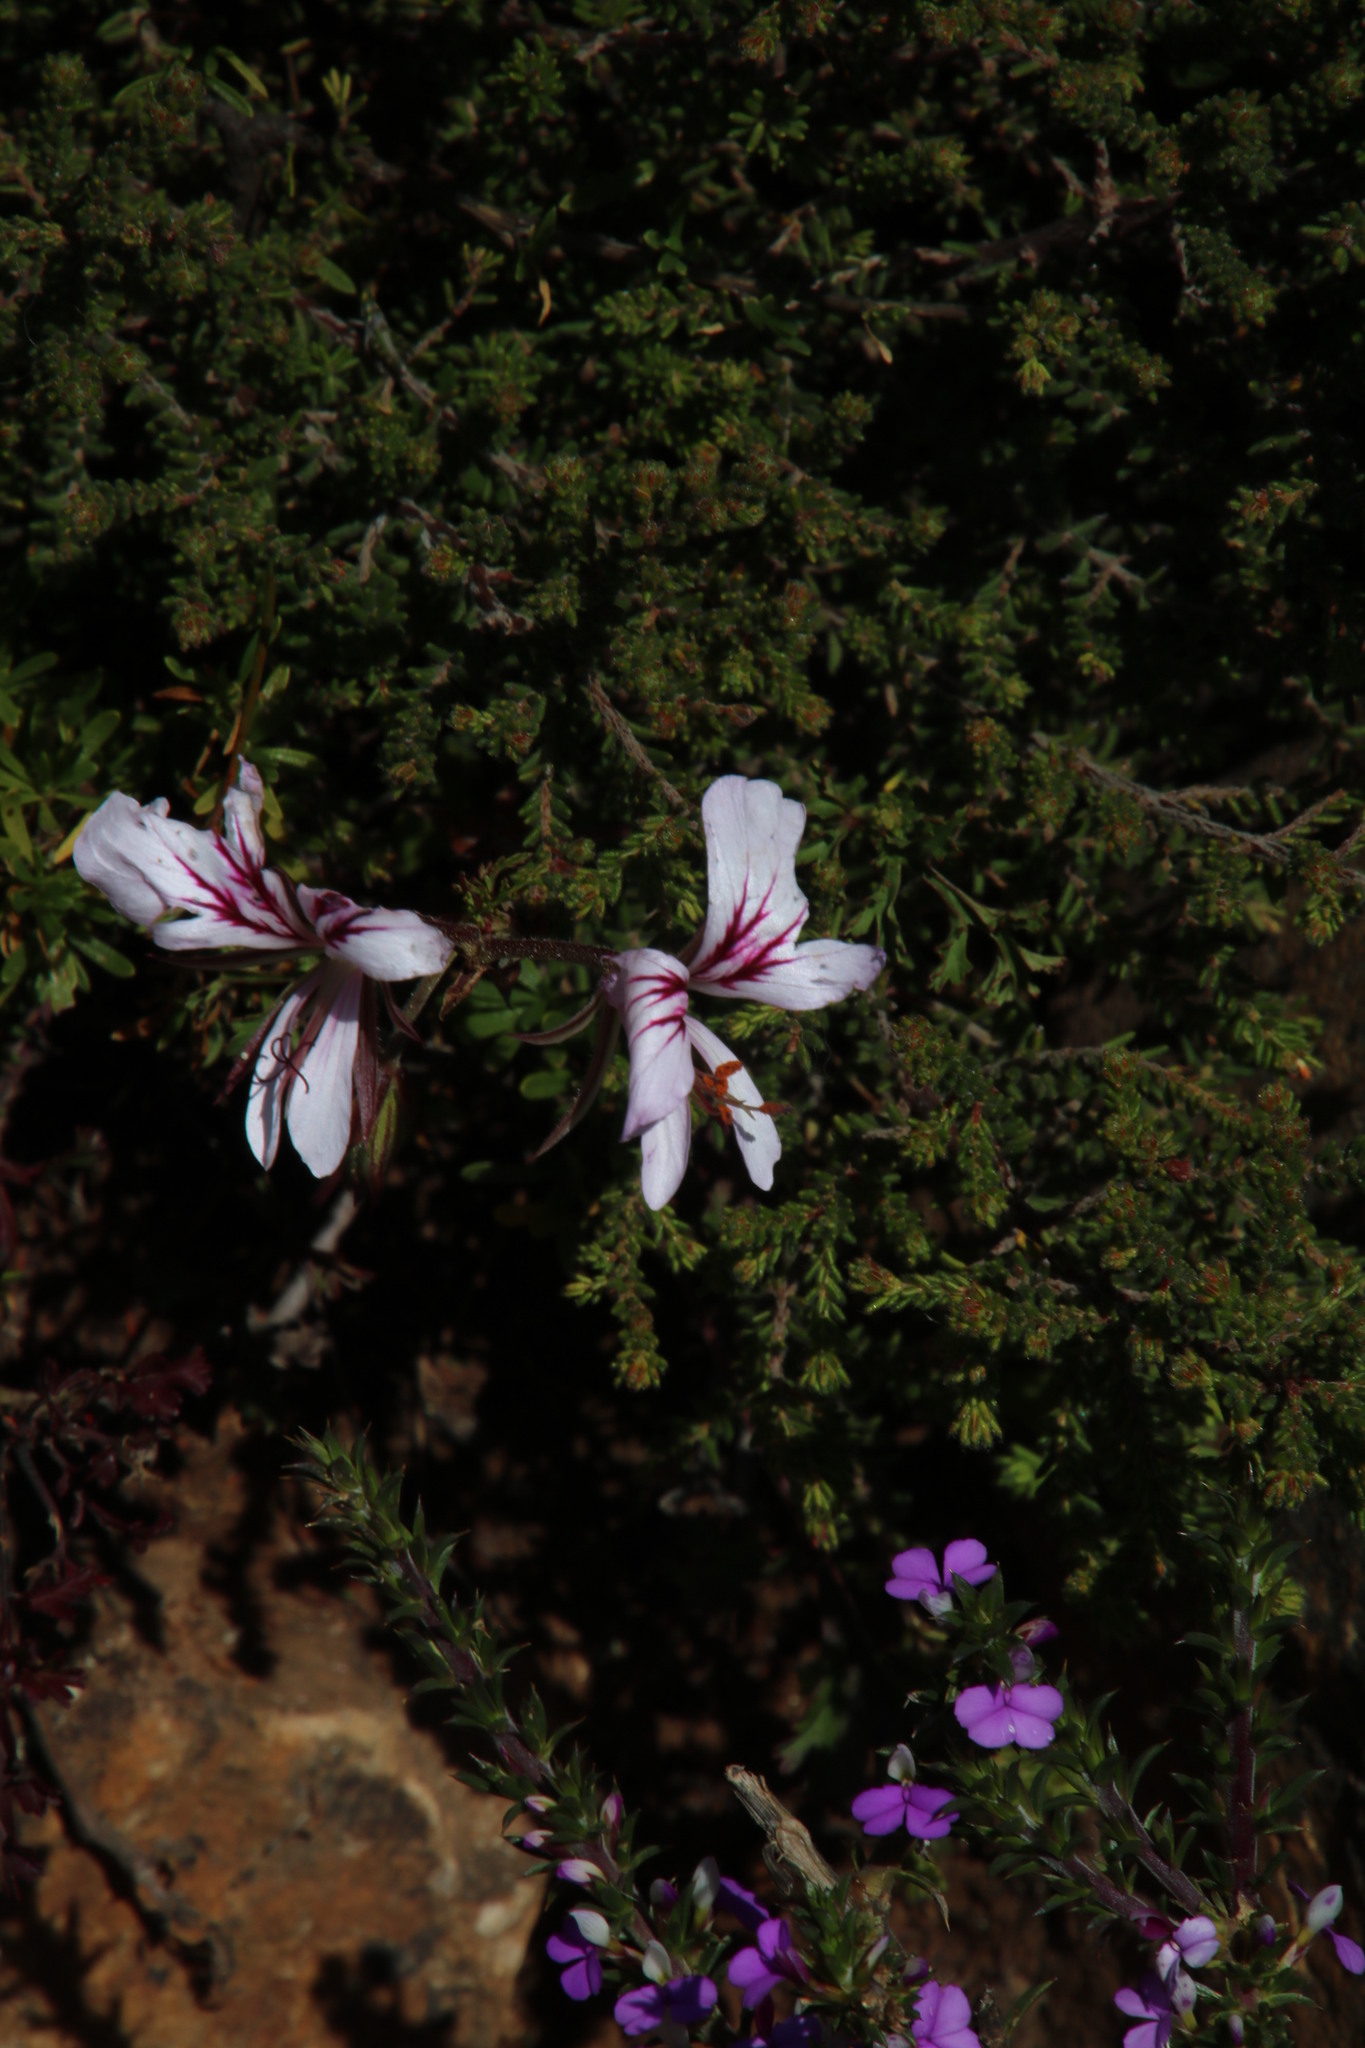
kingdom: Plantae
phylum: Tracheophyta
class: Magnoliopsida
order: Geraniales
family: Geraniaceae
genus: Pelargonium
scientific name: Pelargonium myrrhifolium
